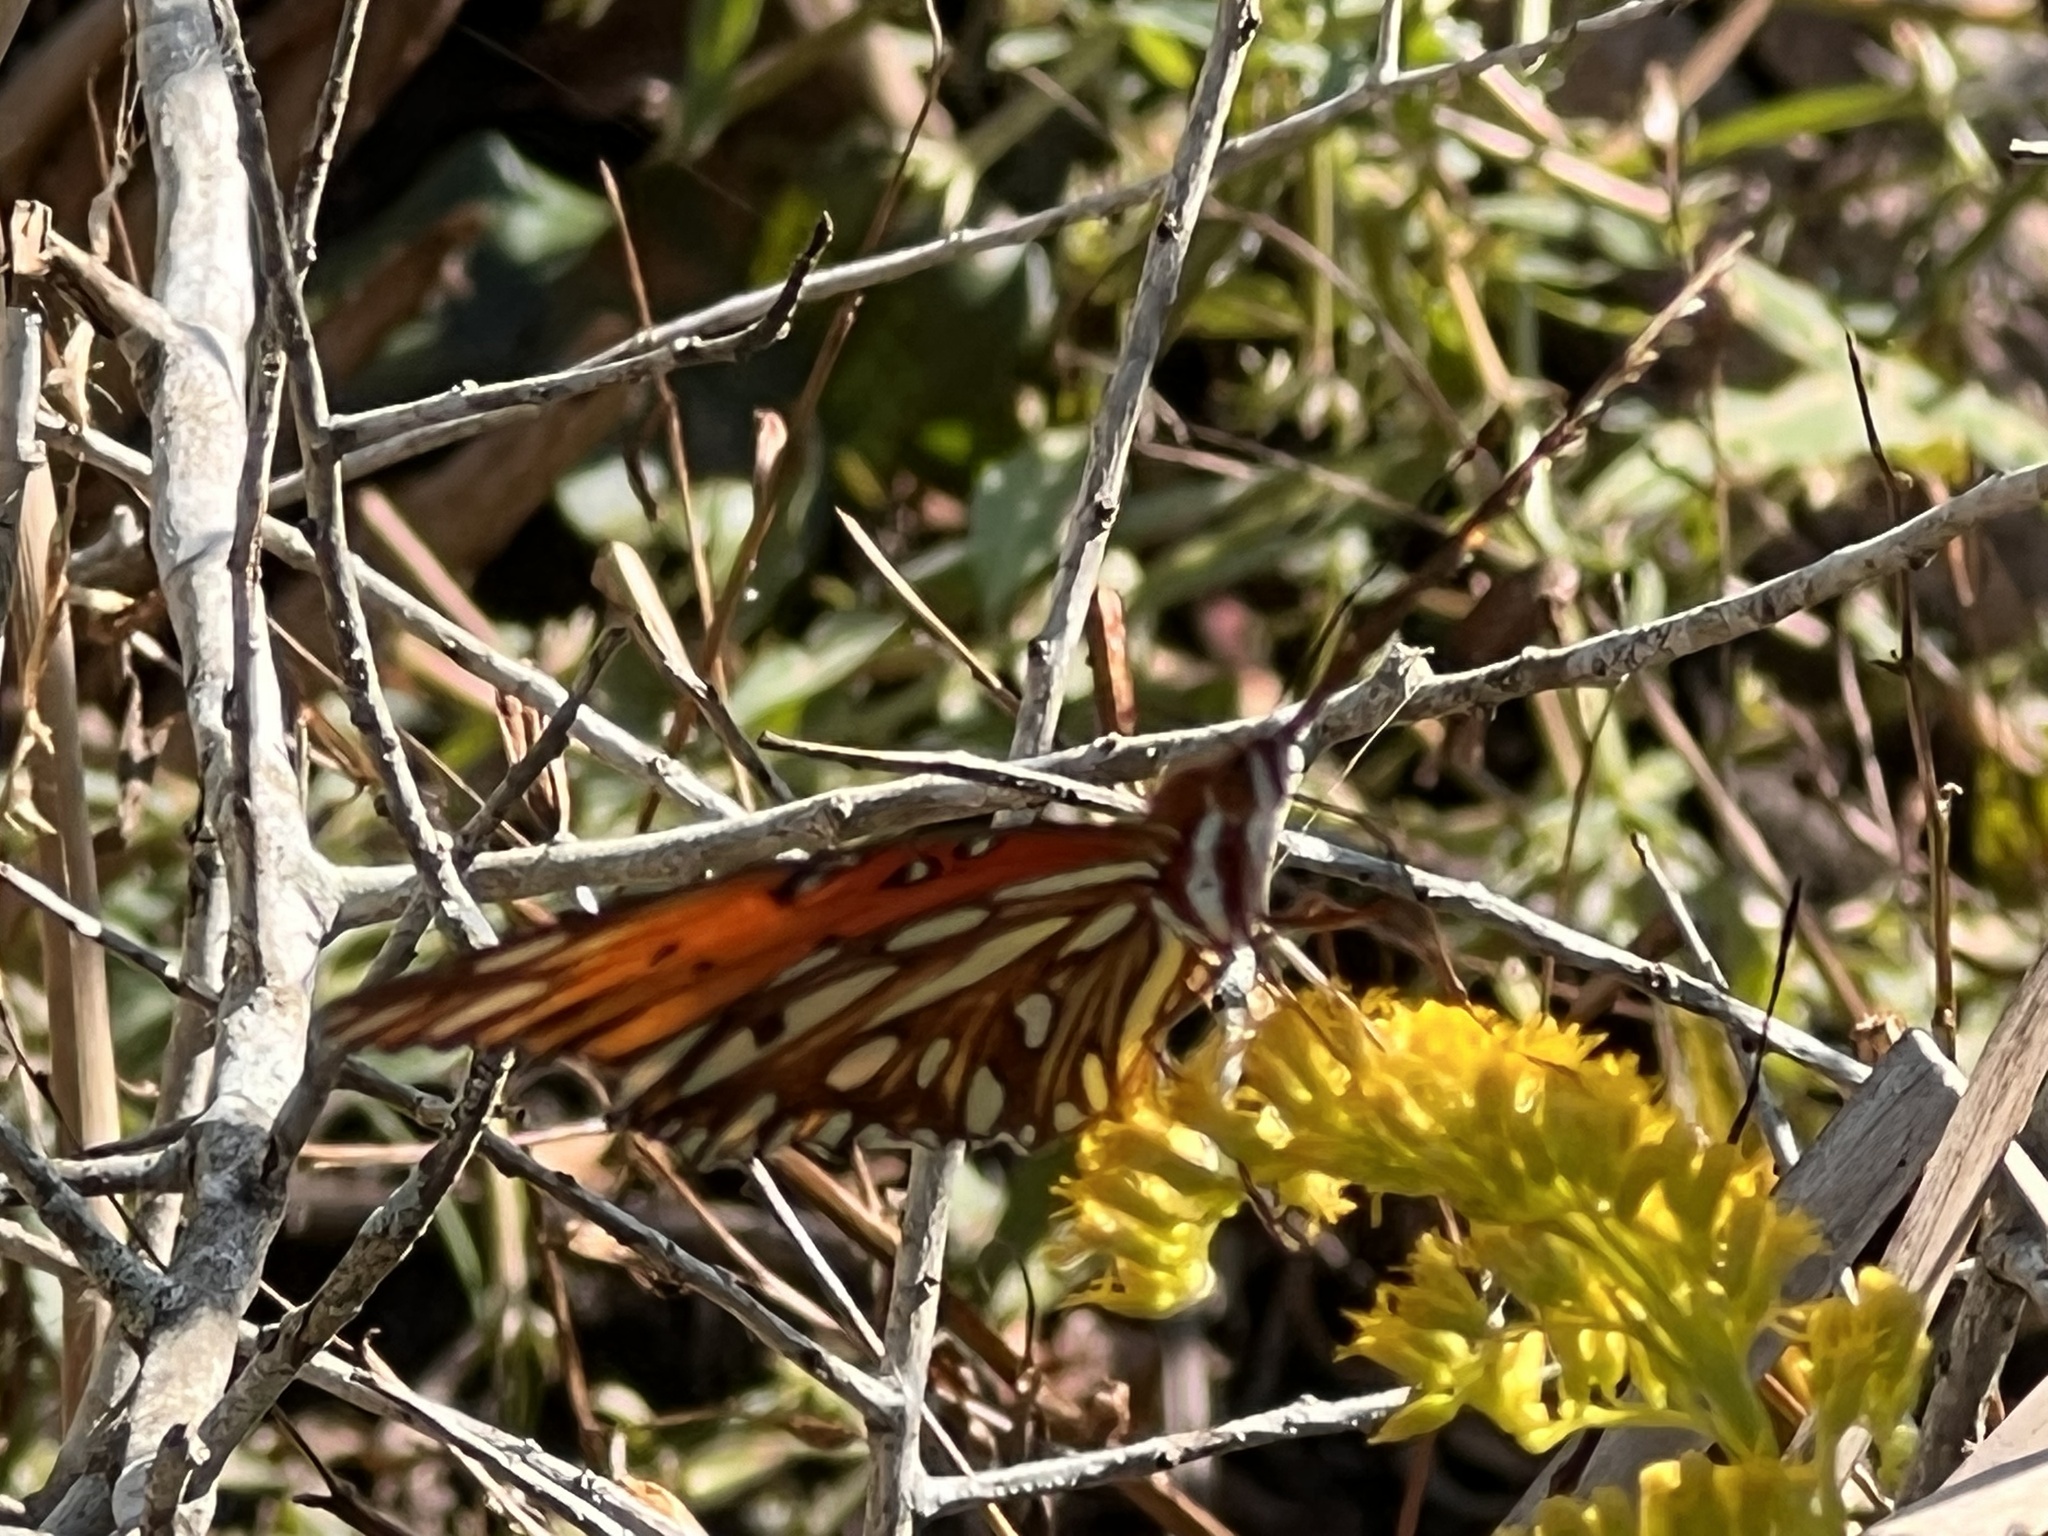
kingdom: Animalia
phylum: Arthropoda
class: Insecta
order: Lepidoptera
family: Nymphalidae
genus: Dione
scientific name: Dione vanillae
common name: Gulf fritillary
